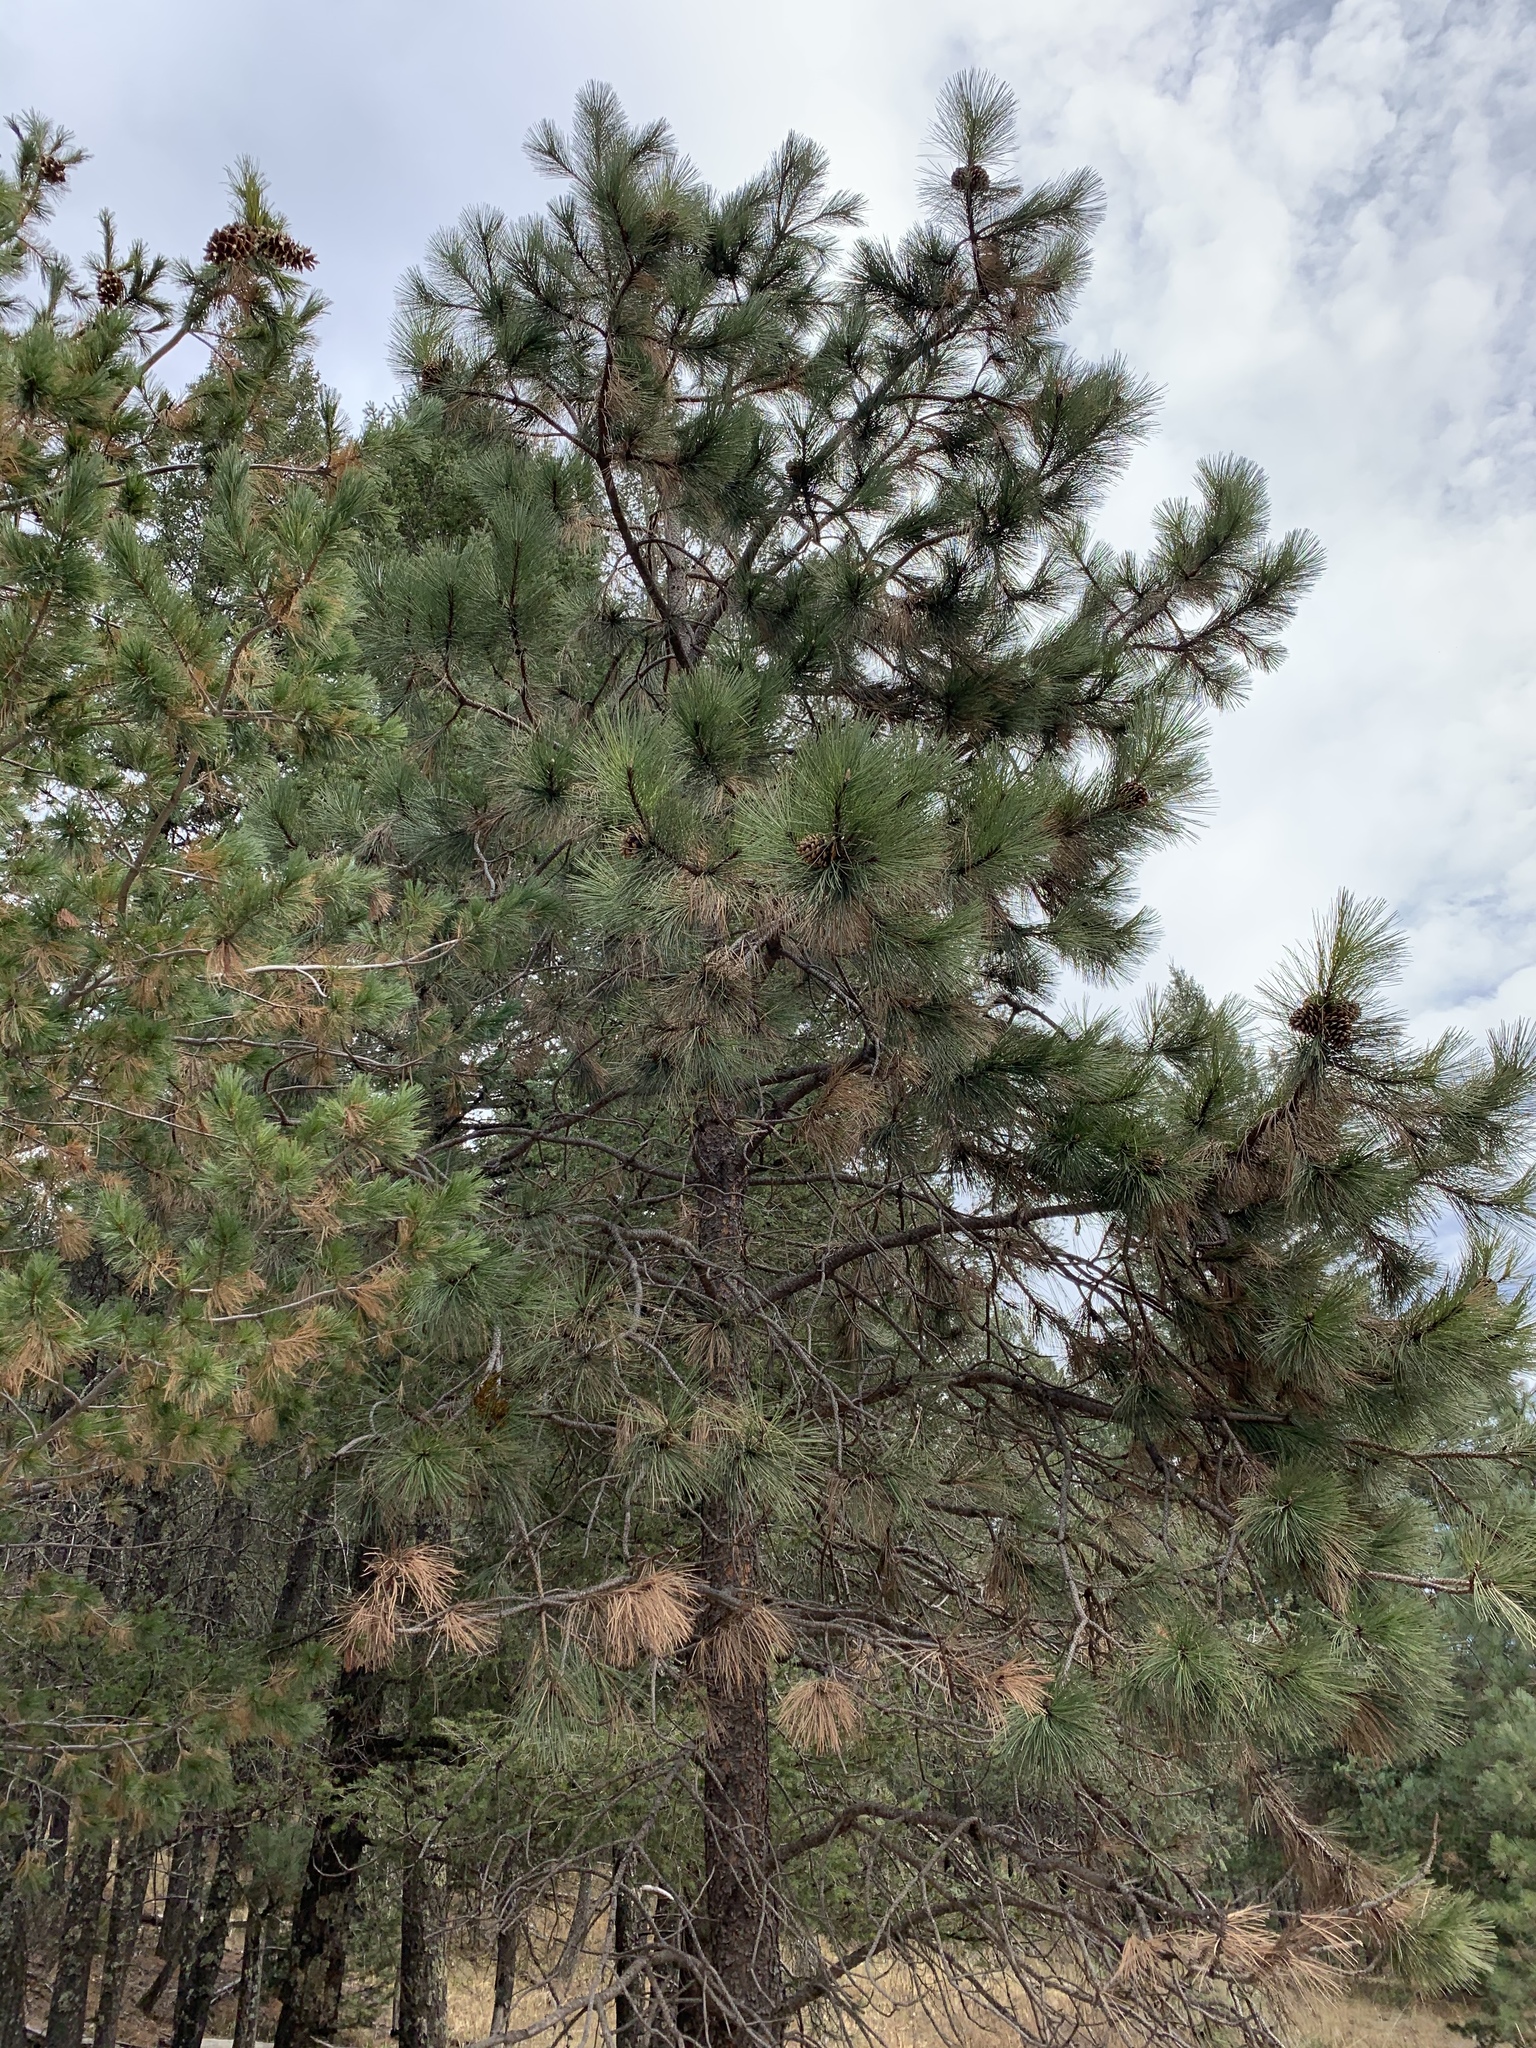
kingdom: Plantae
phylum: Tracheophyta
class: Pinopsida
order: Pinales
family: Pinaceae
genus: Pinus
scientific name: Pinus ponderosa
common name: Western yellow-pine
